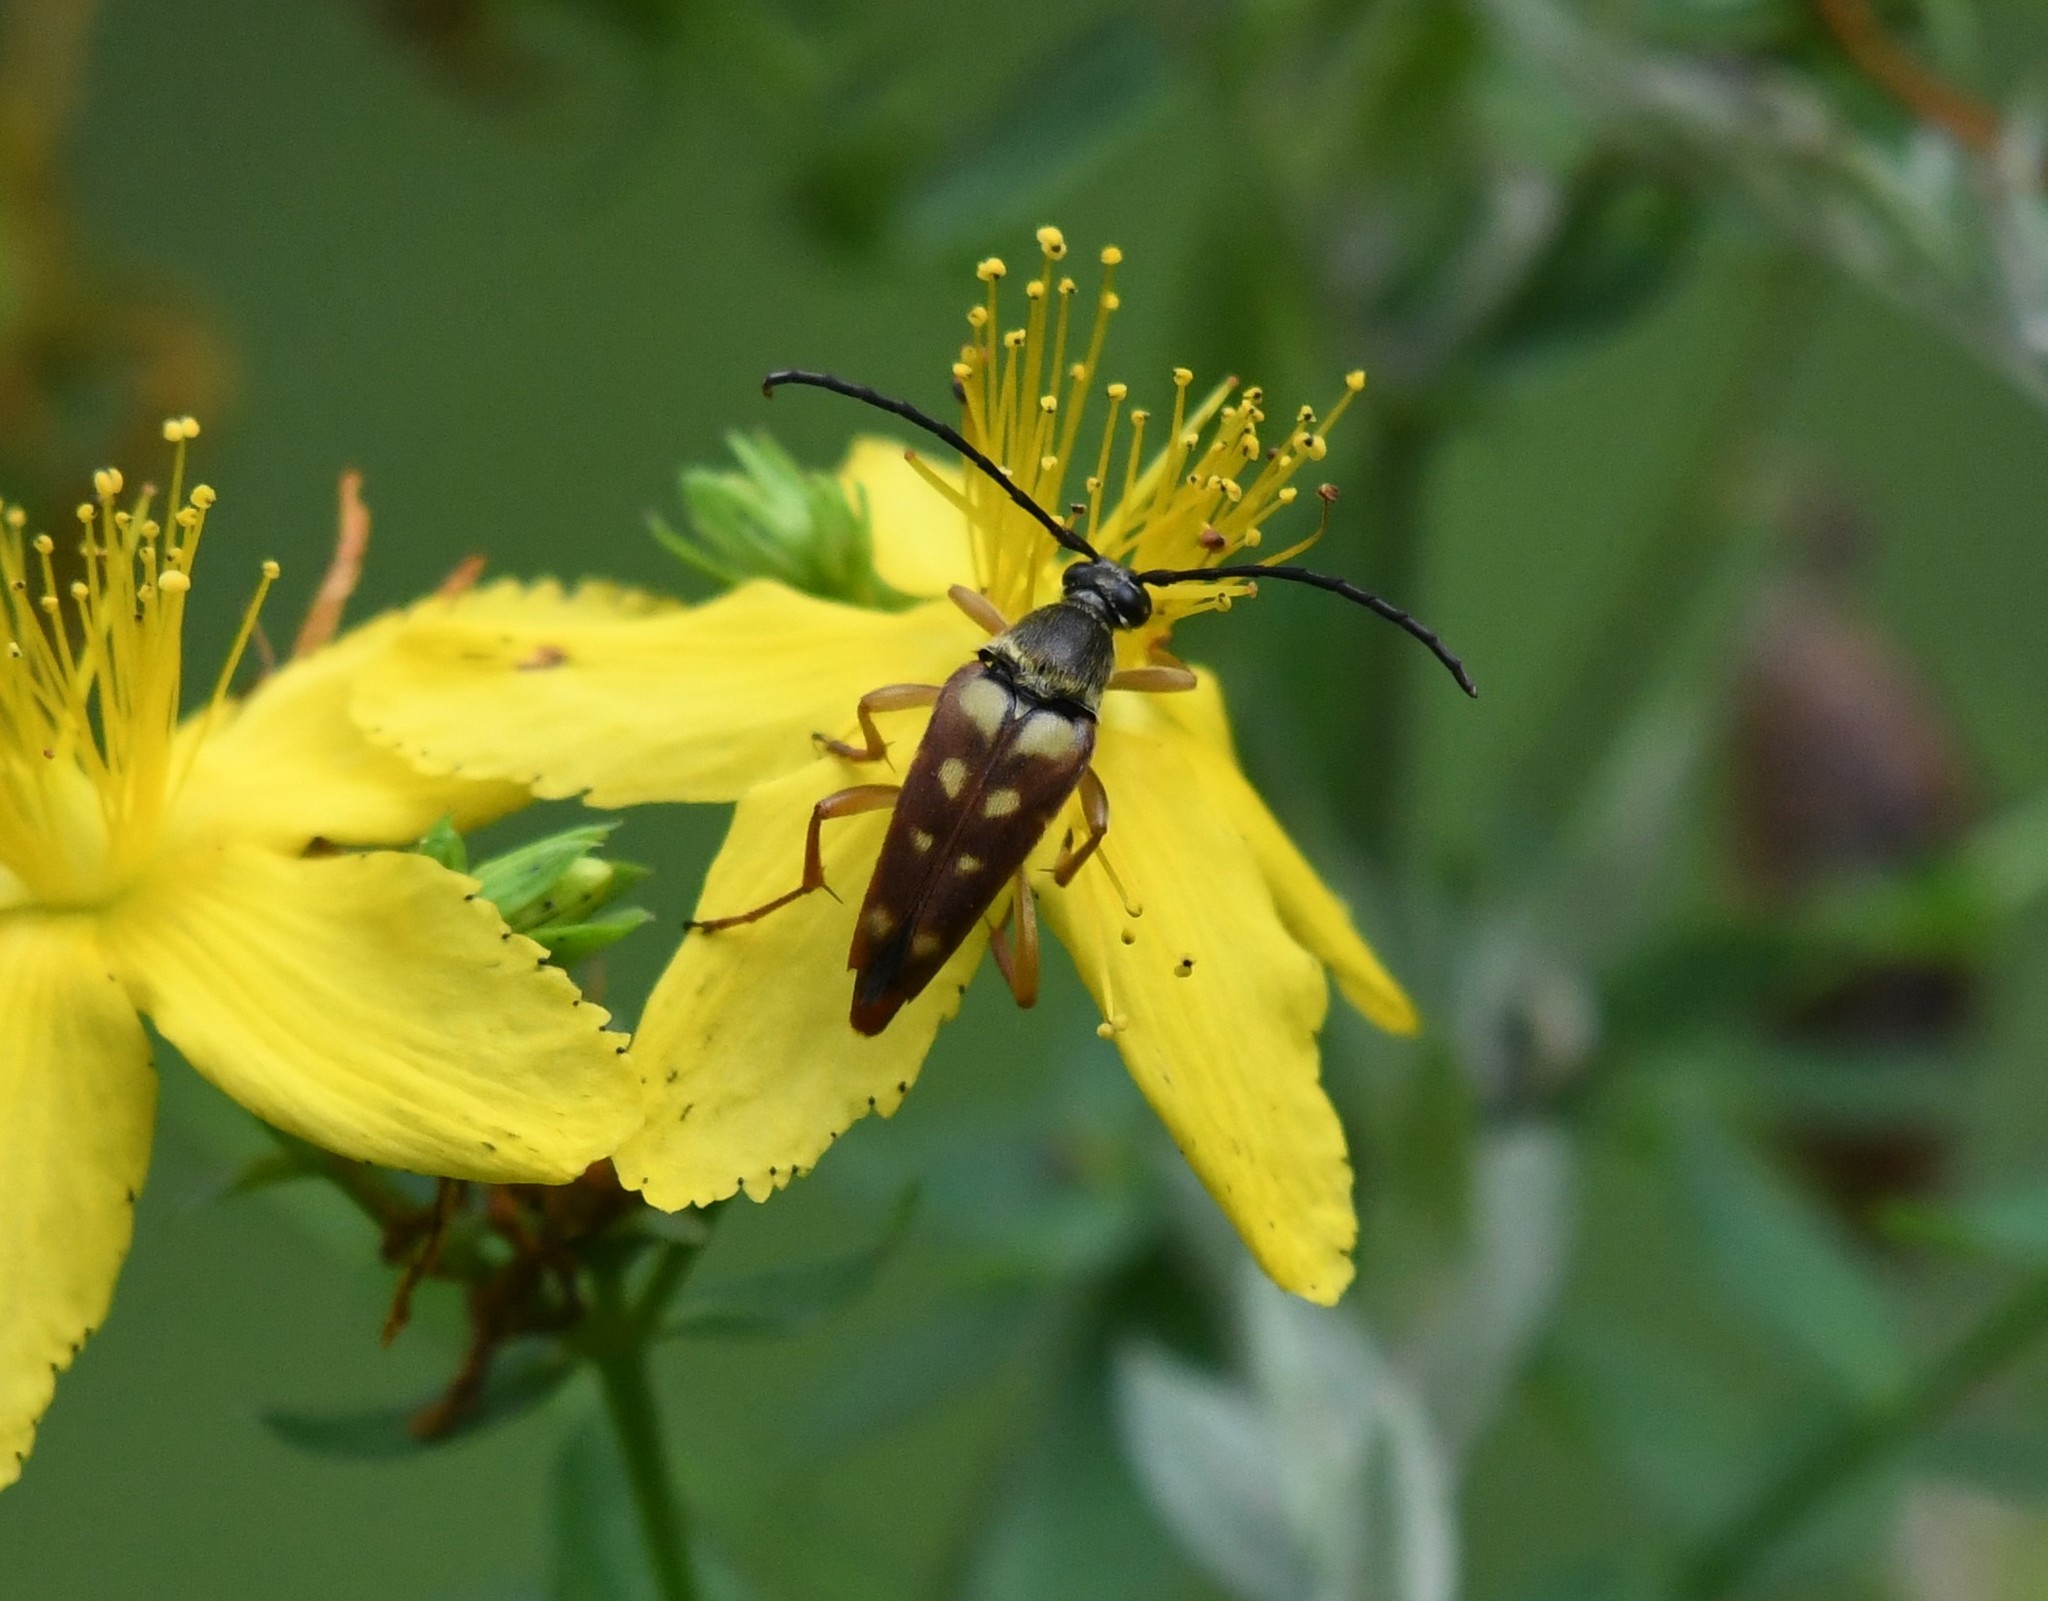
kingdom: Animalia
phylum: Arthropoda
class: Insecta
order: Coleoptera
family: Cerambycidae
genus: Typocerus
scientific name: Typocerus velutinus
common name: Banded longhorn beetle
